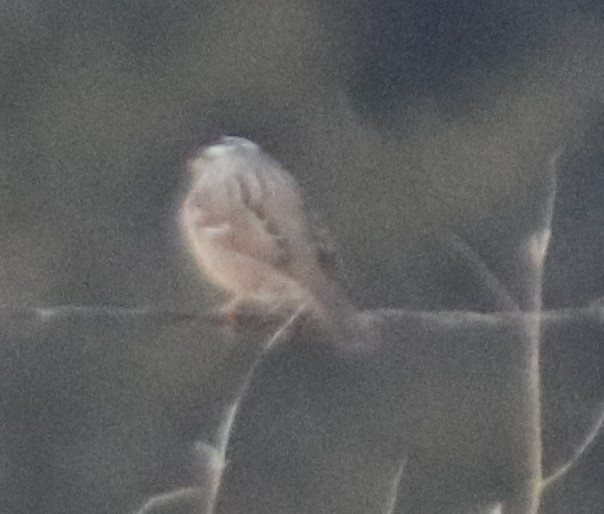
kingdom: Animalia
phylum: Chordata
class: Aves
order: Passeriformes
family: Passerellidae
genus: Zonotrichia
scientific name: Zonotrichia albicollis
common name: White-throated sparrow
